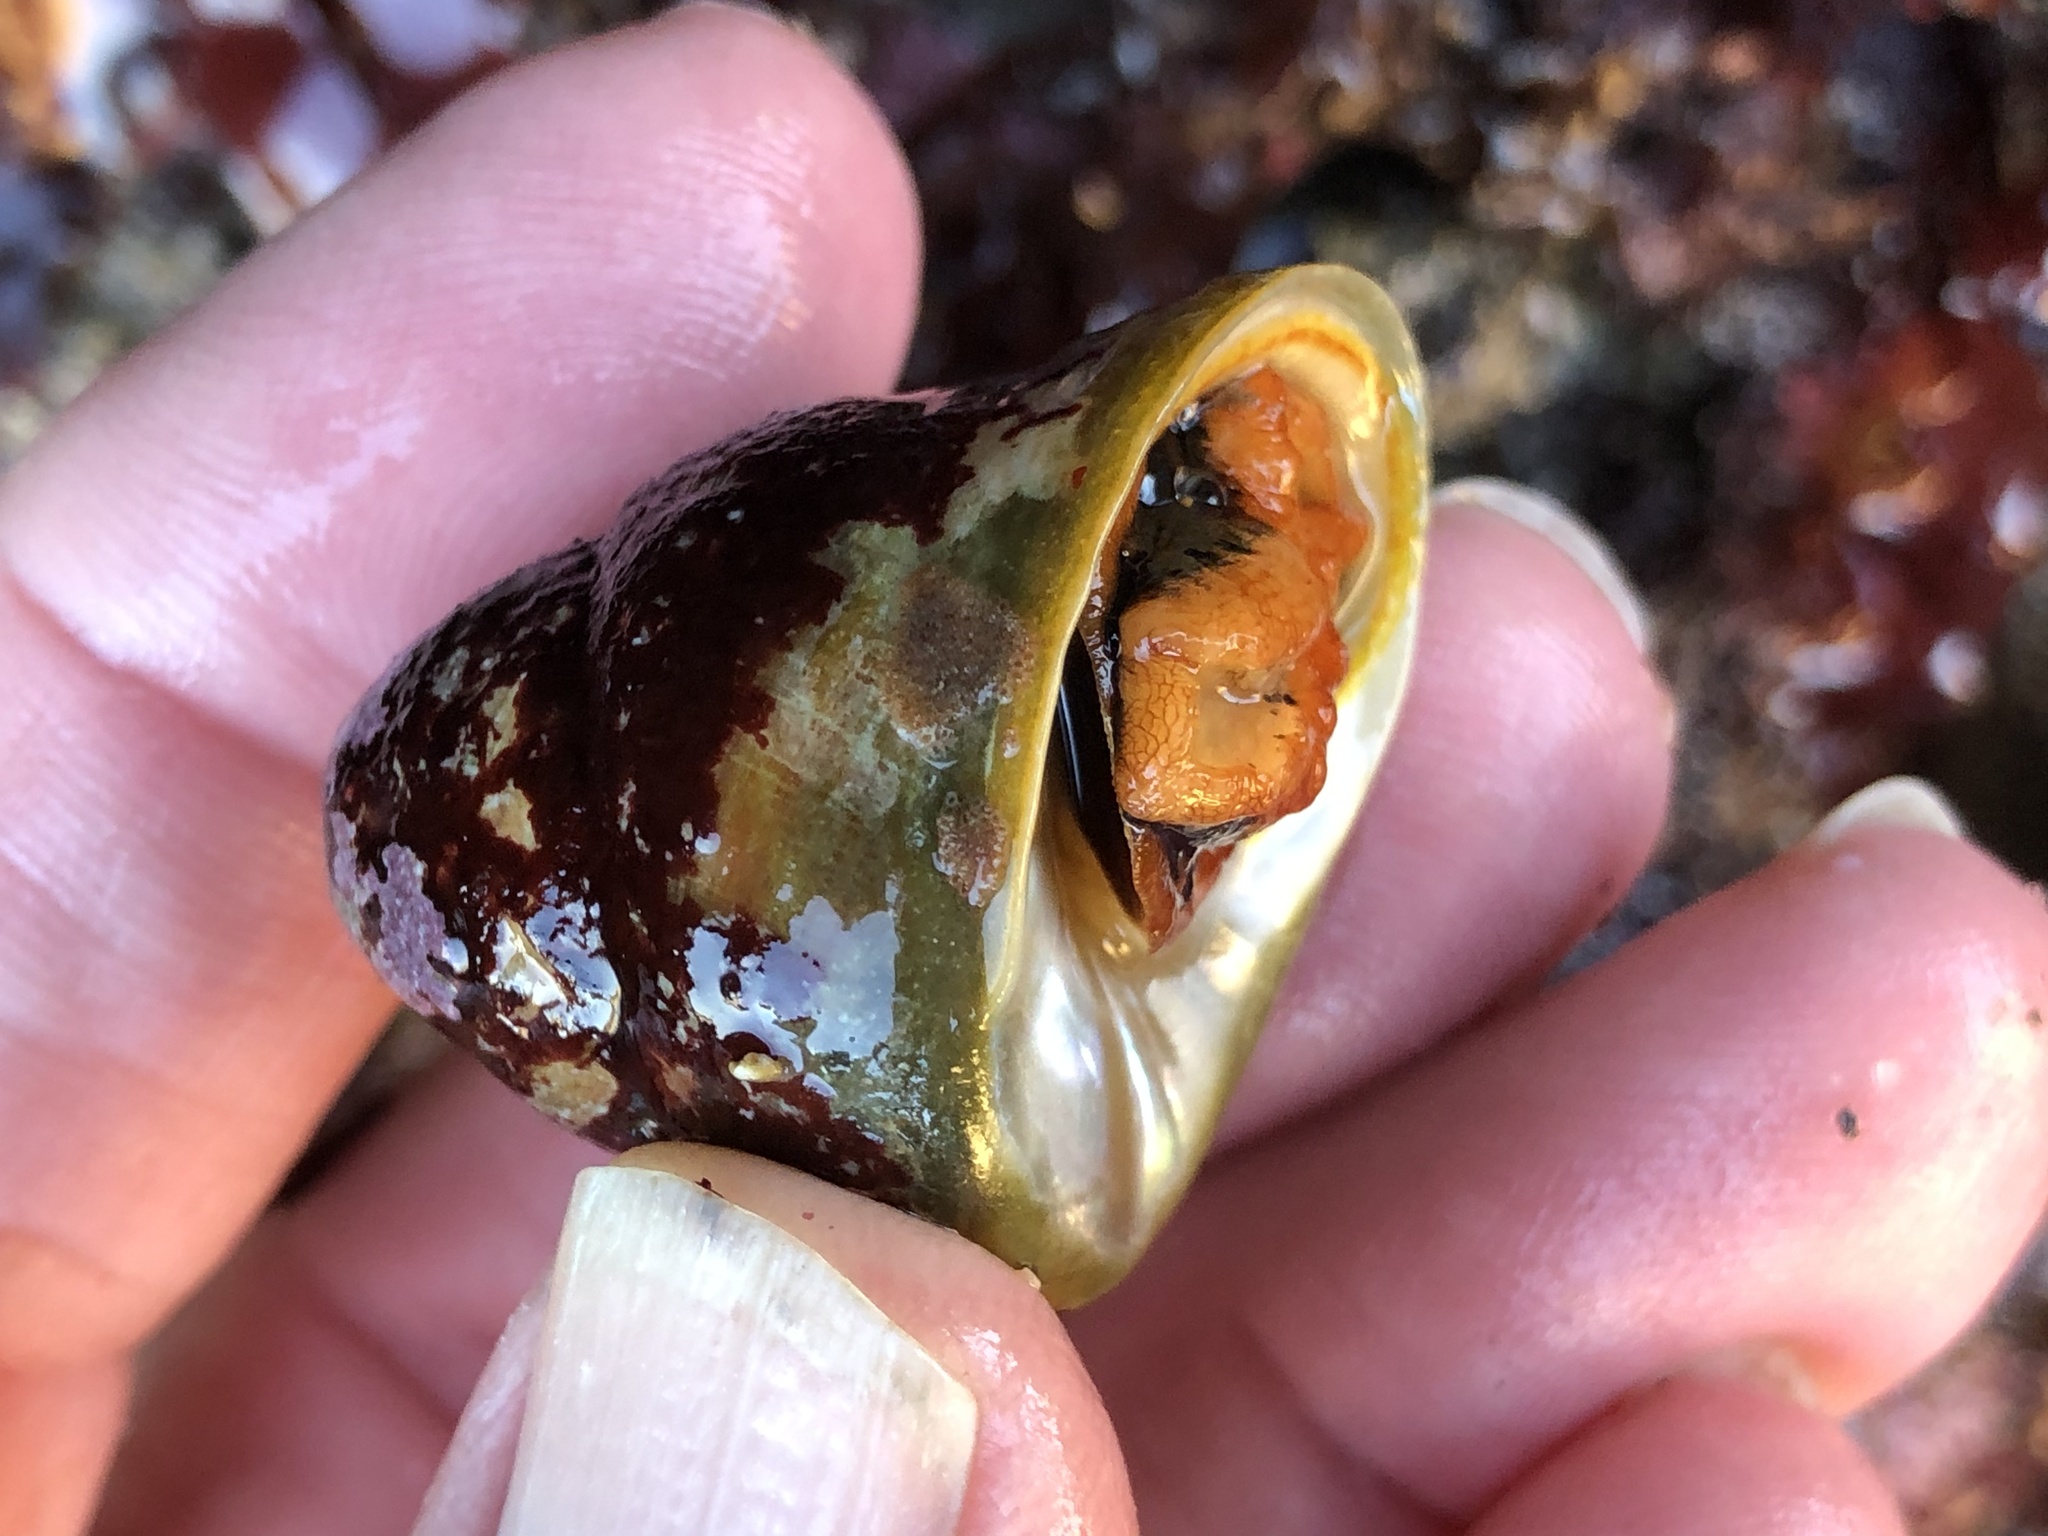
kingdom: Animalia
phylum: Mollusca
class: Gastropoda
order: Trochida
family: Tegulidae
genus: Tegula
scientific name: Tegula brunnea
